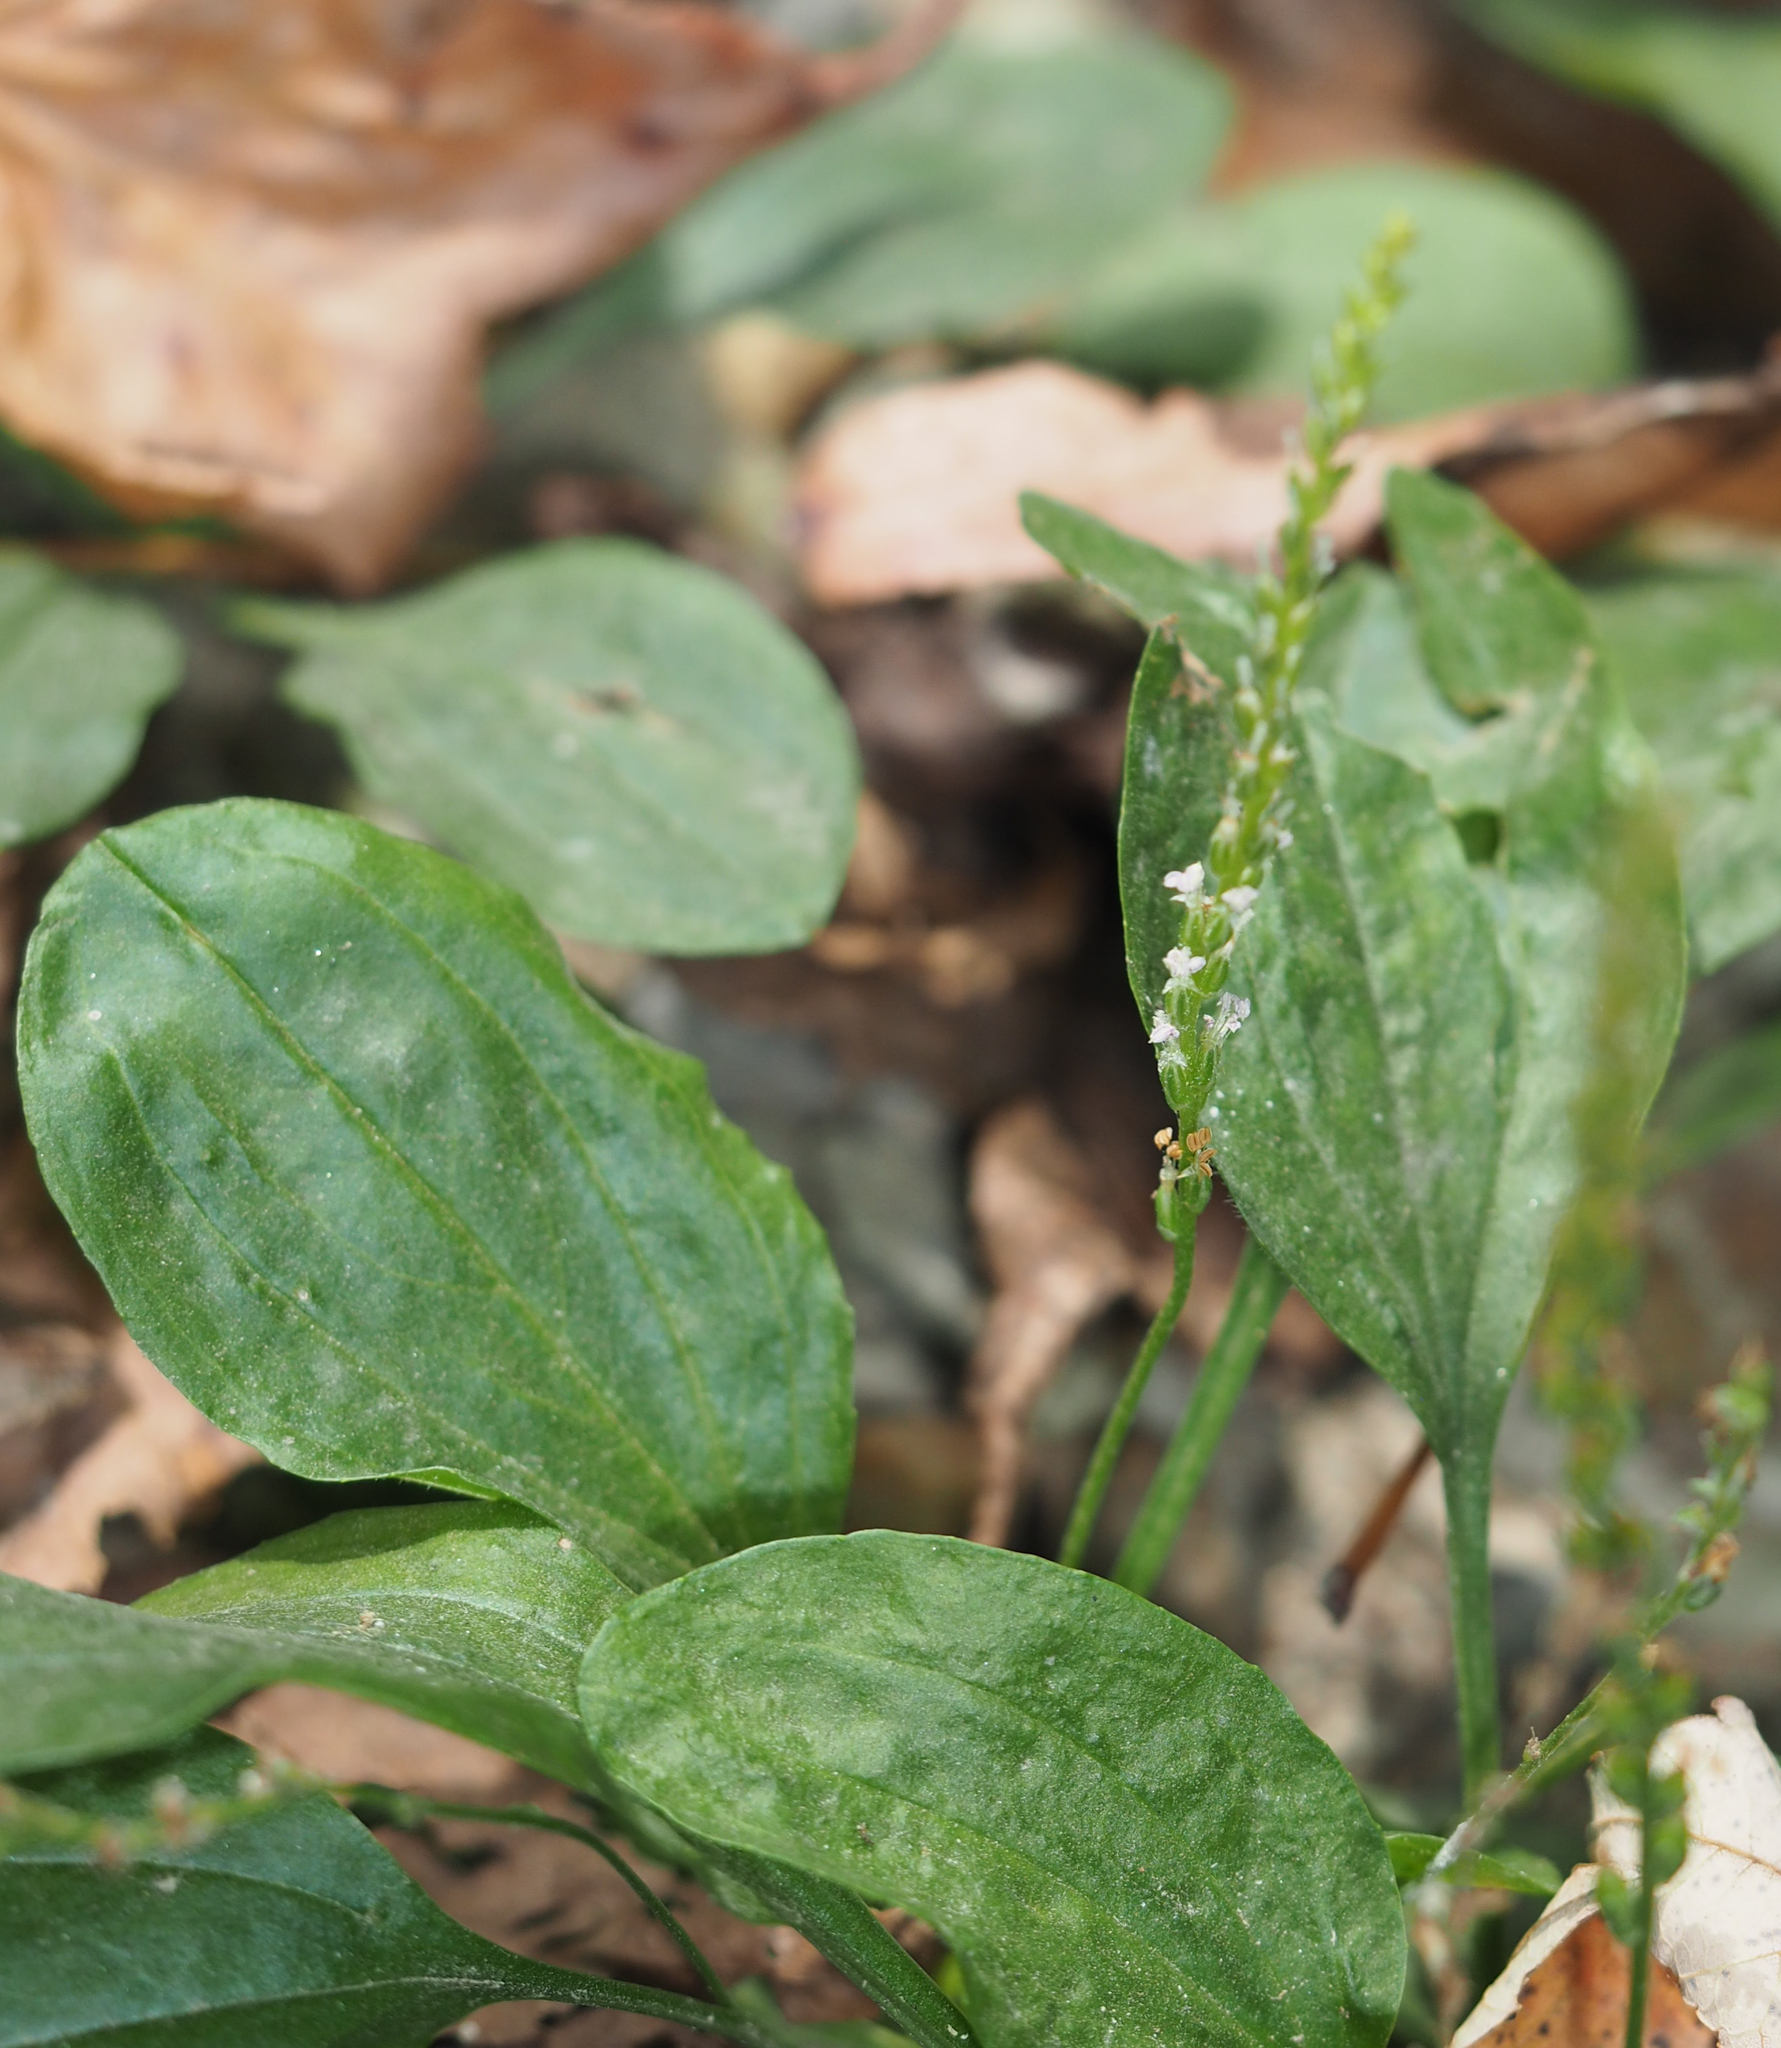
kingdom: Plantae
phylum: Tracheophyta
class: Magnoliopsida
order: Lamiales
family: Plantaginaceae
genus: Plantago
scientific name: Plantago major
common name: Common plantain
